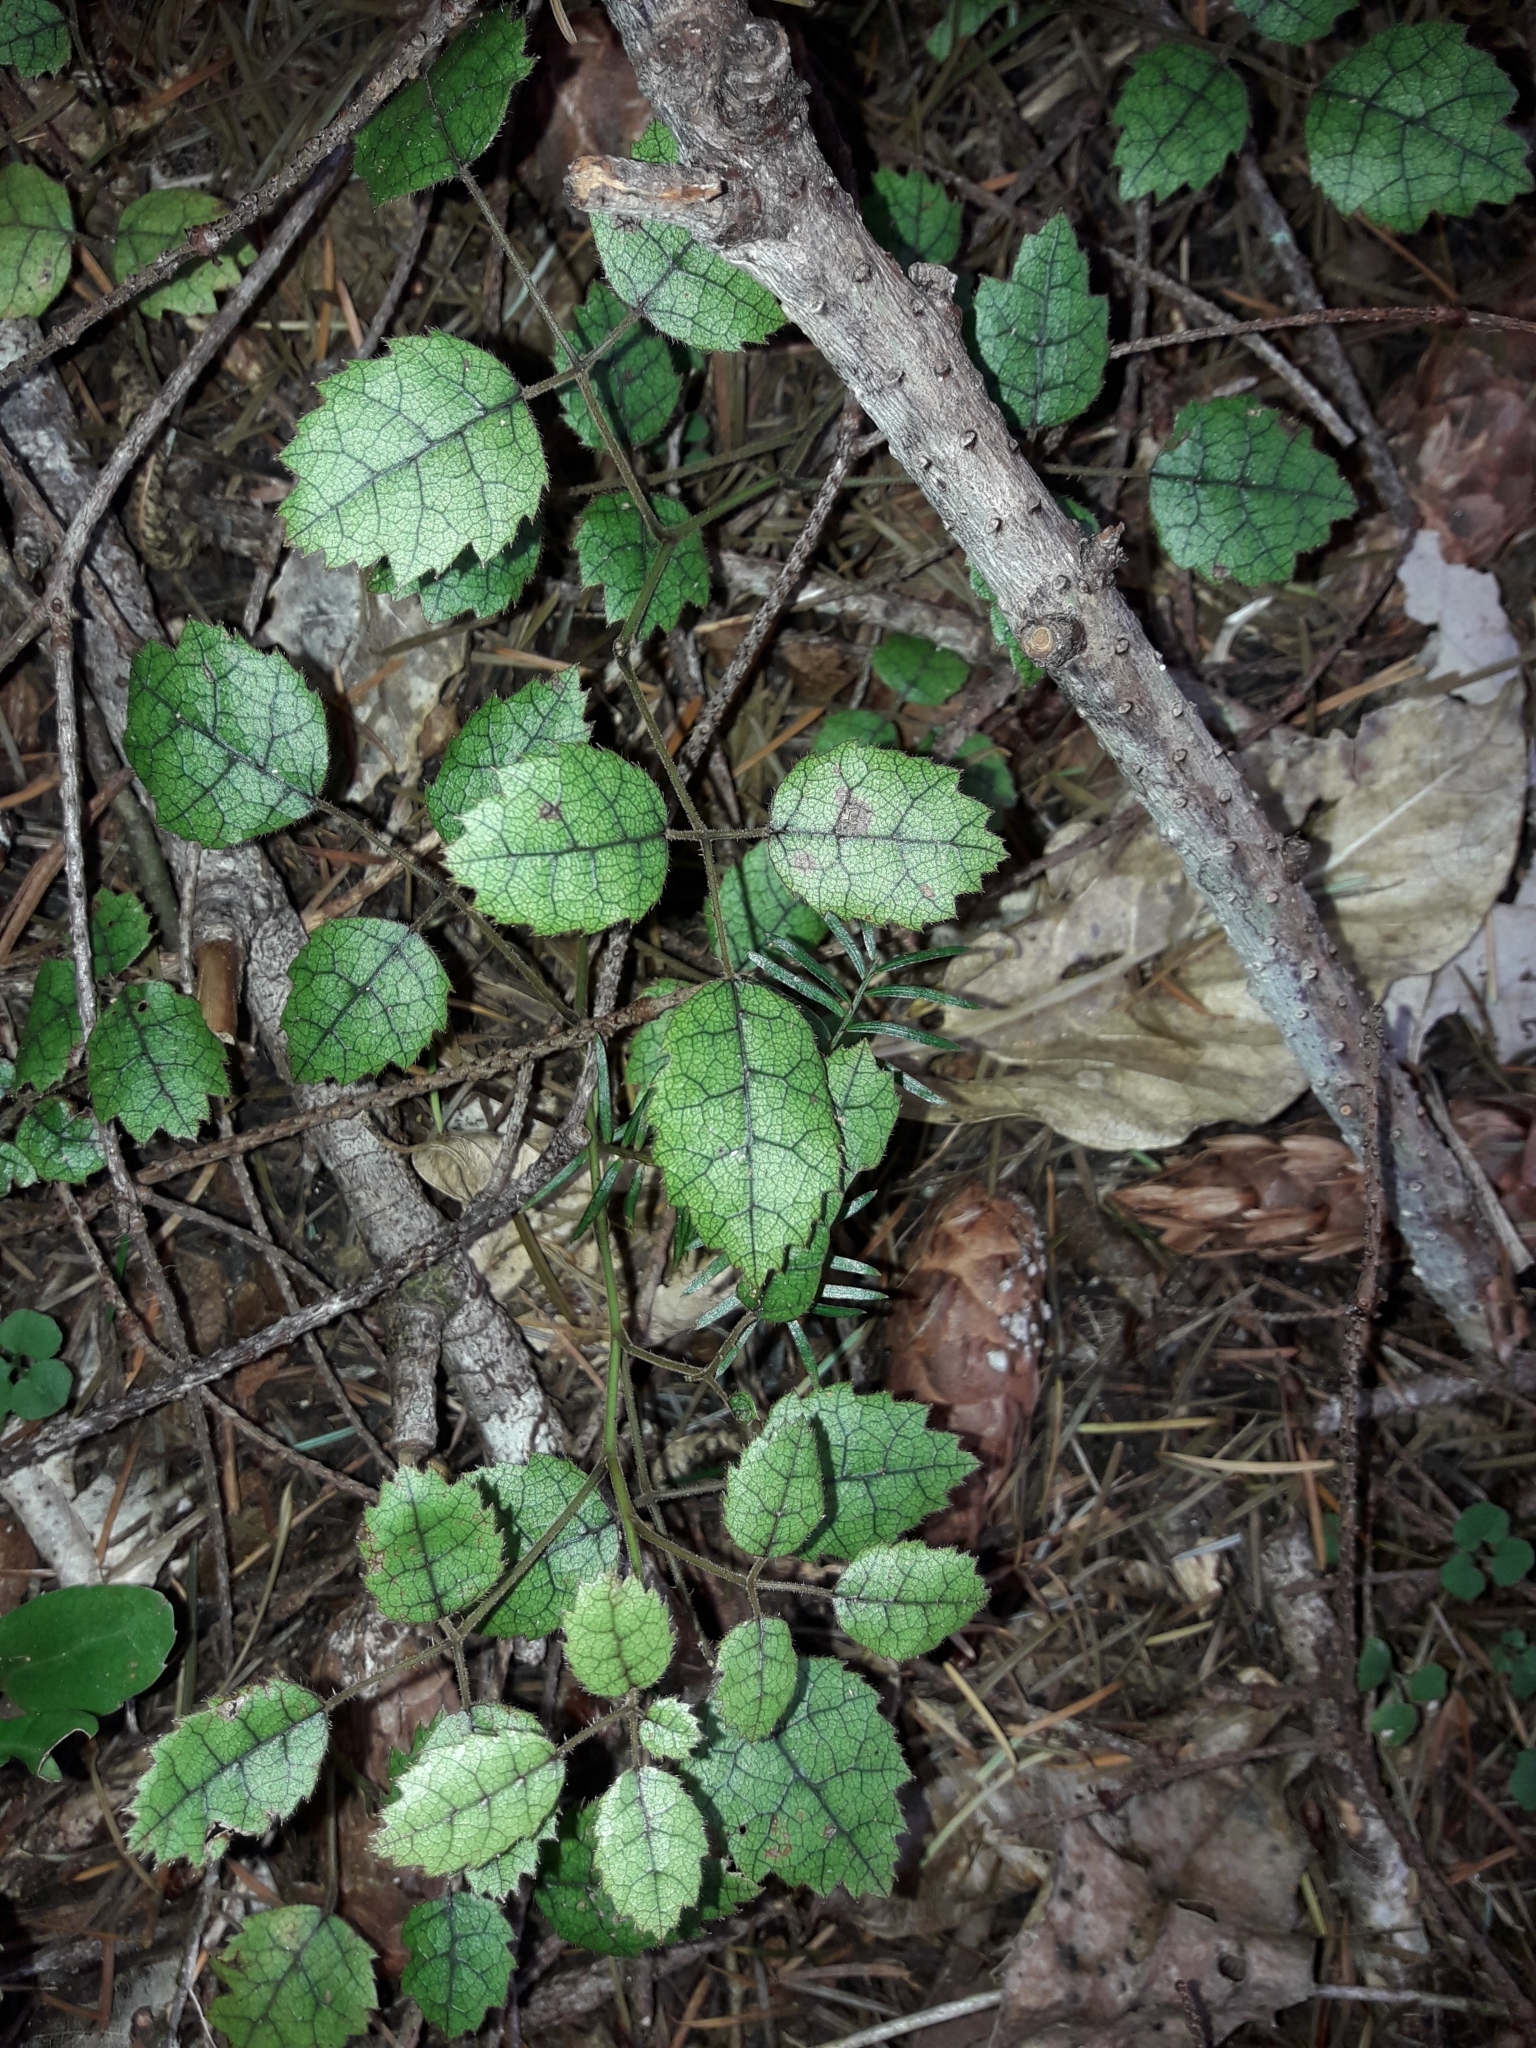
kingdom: Plantae
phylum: Tracheophyta
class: Magnoliopsida
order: Rosales
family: Rosaceae
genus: Rubus
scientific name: Rubus australis
